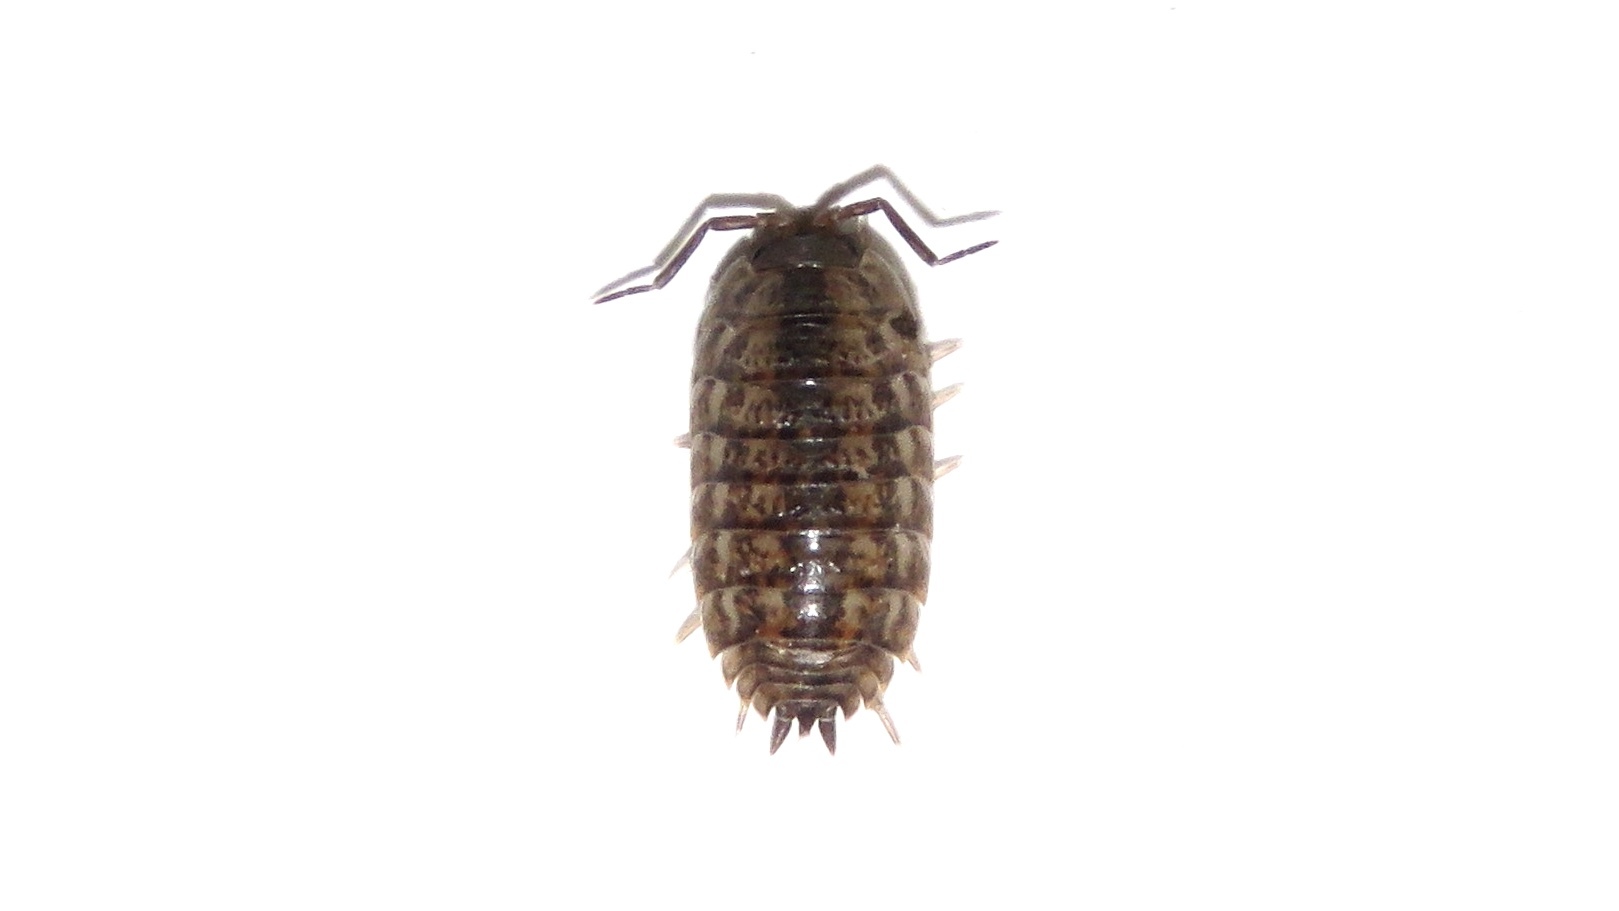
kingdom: Animalia
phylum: Arthropoda
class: Malacostraca
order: Isopoda
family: Trachelipodidae
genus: Trachelipus
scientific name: Trachelipus rathkii
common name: Isopod
